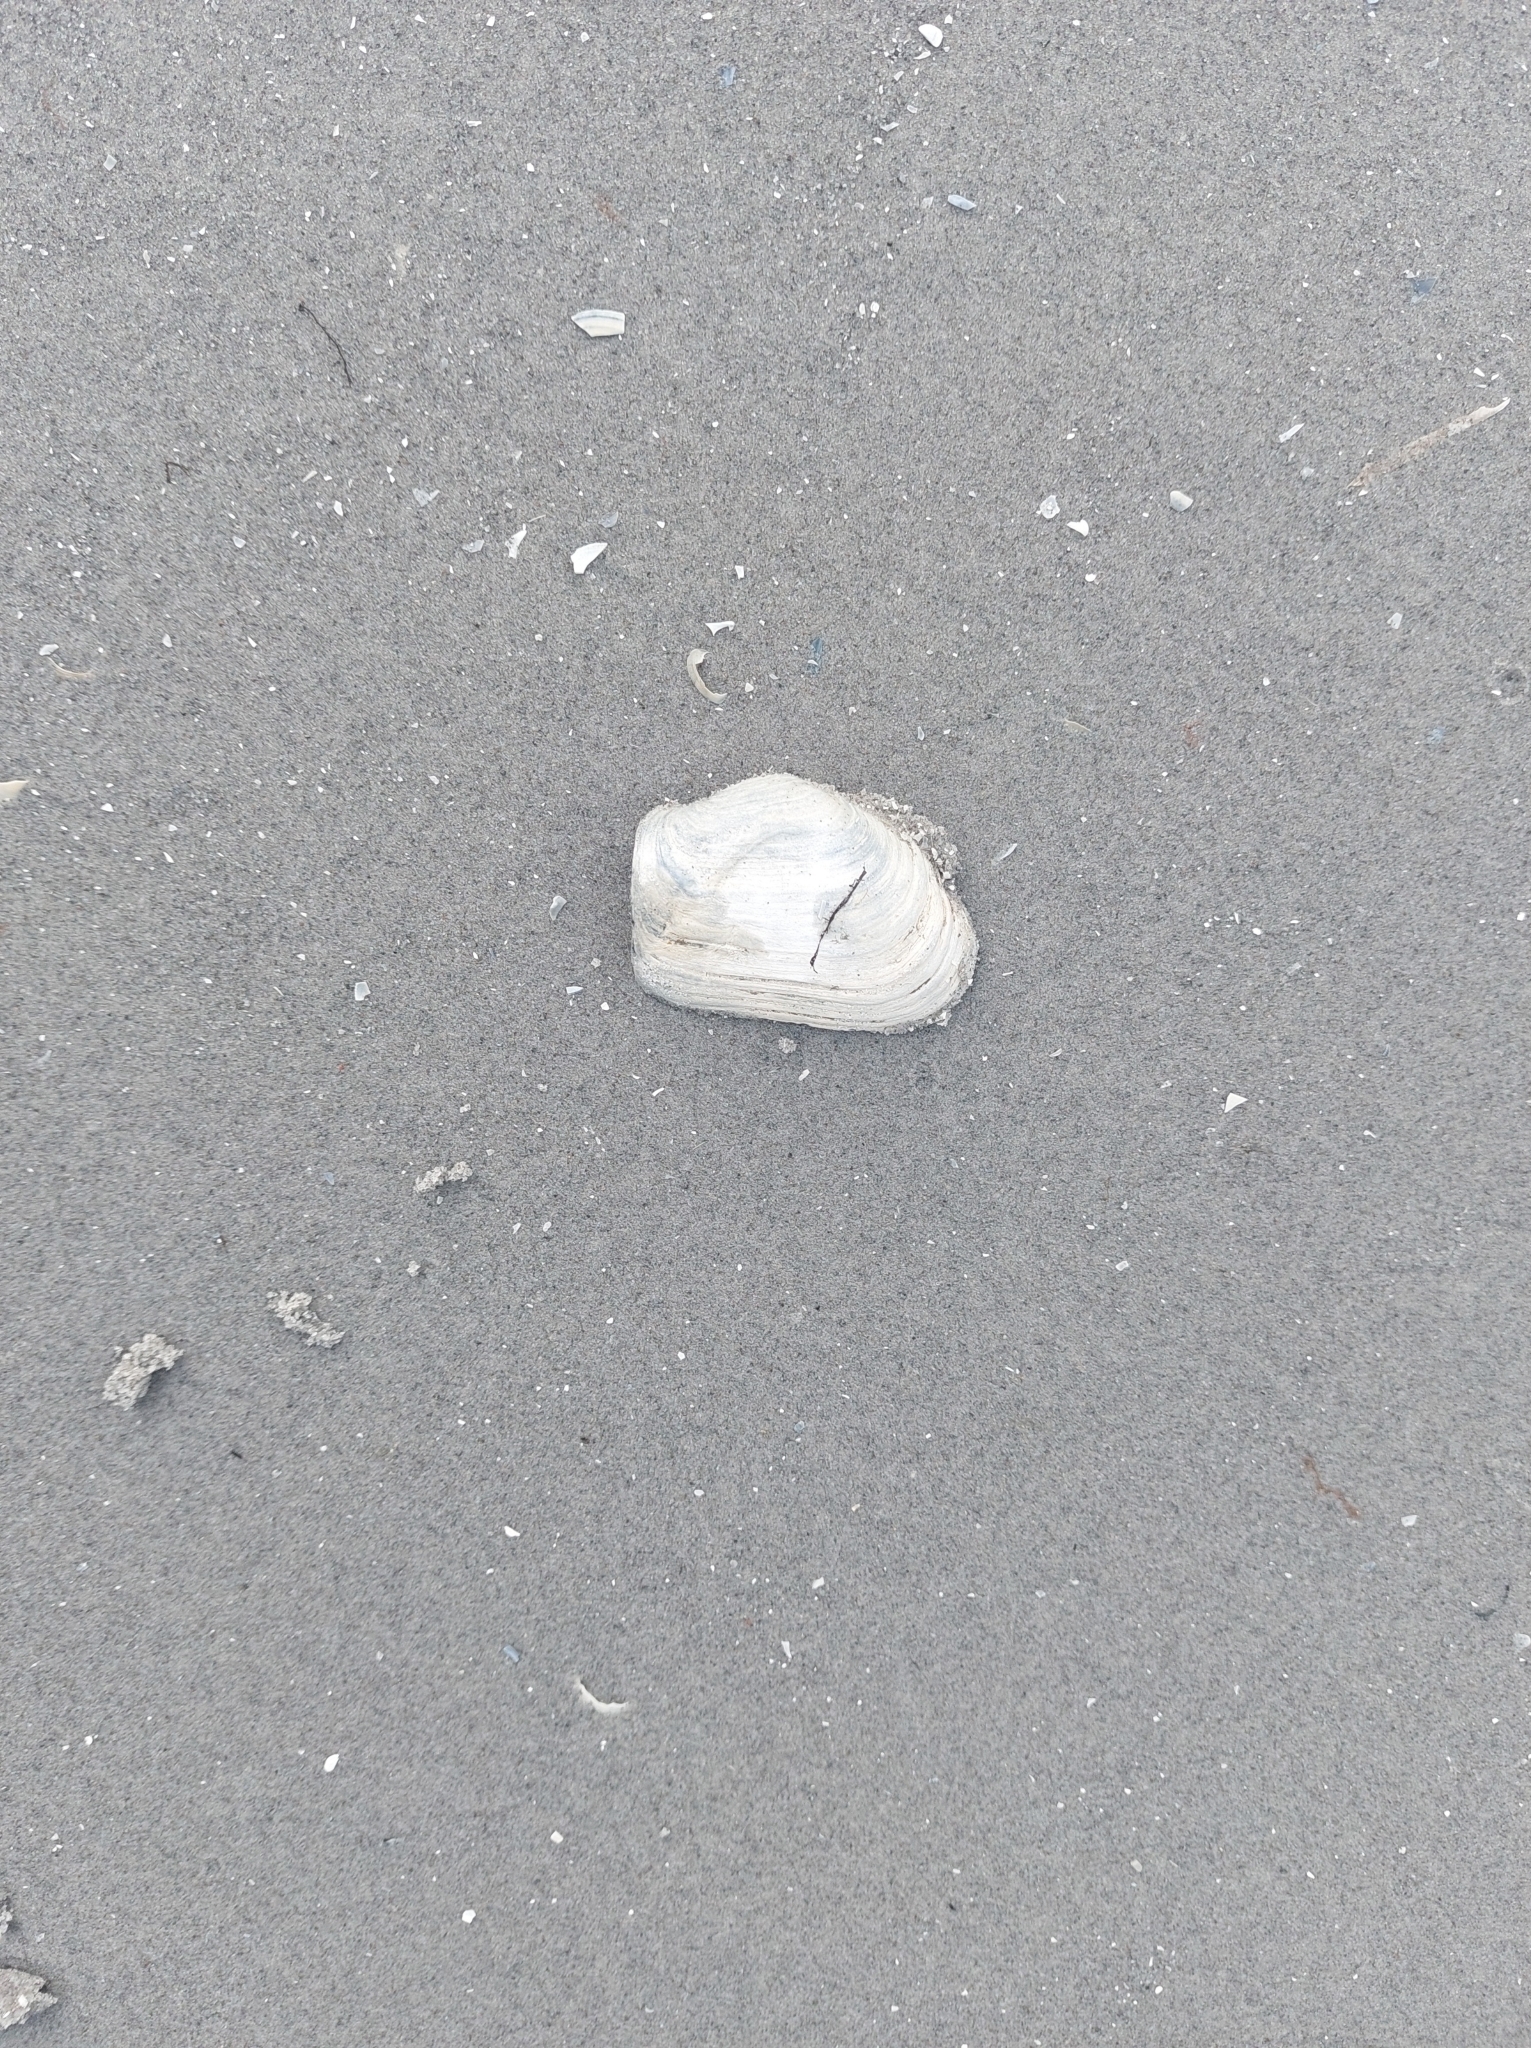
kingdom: Animalia
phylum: Mollusca
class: Bivalvia
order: Myida
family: Myidae
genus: Mya
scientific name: Mya truncata
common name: Blunt gaper
